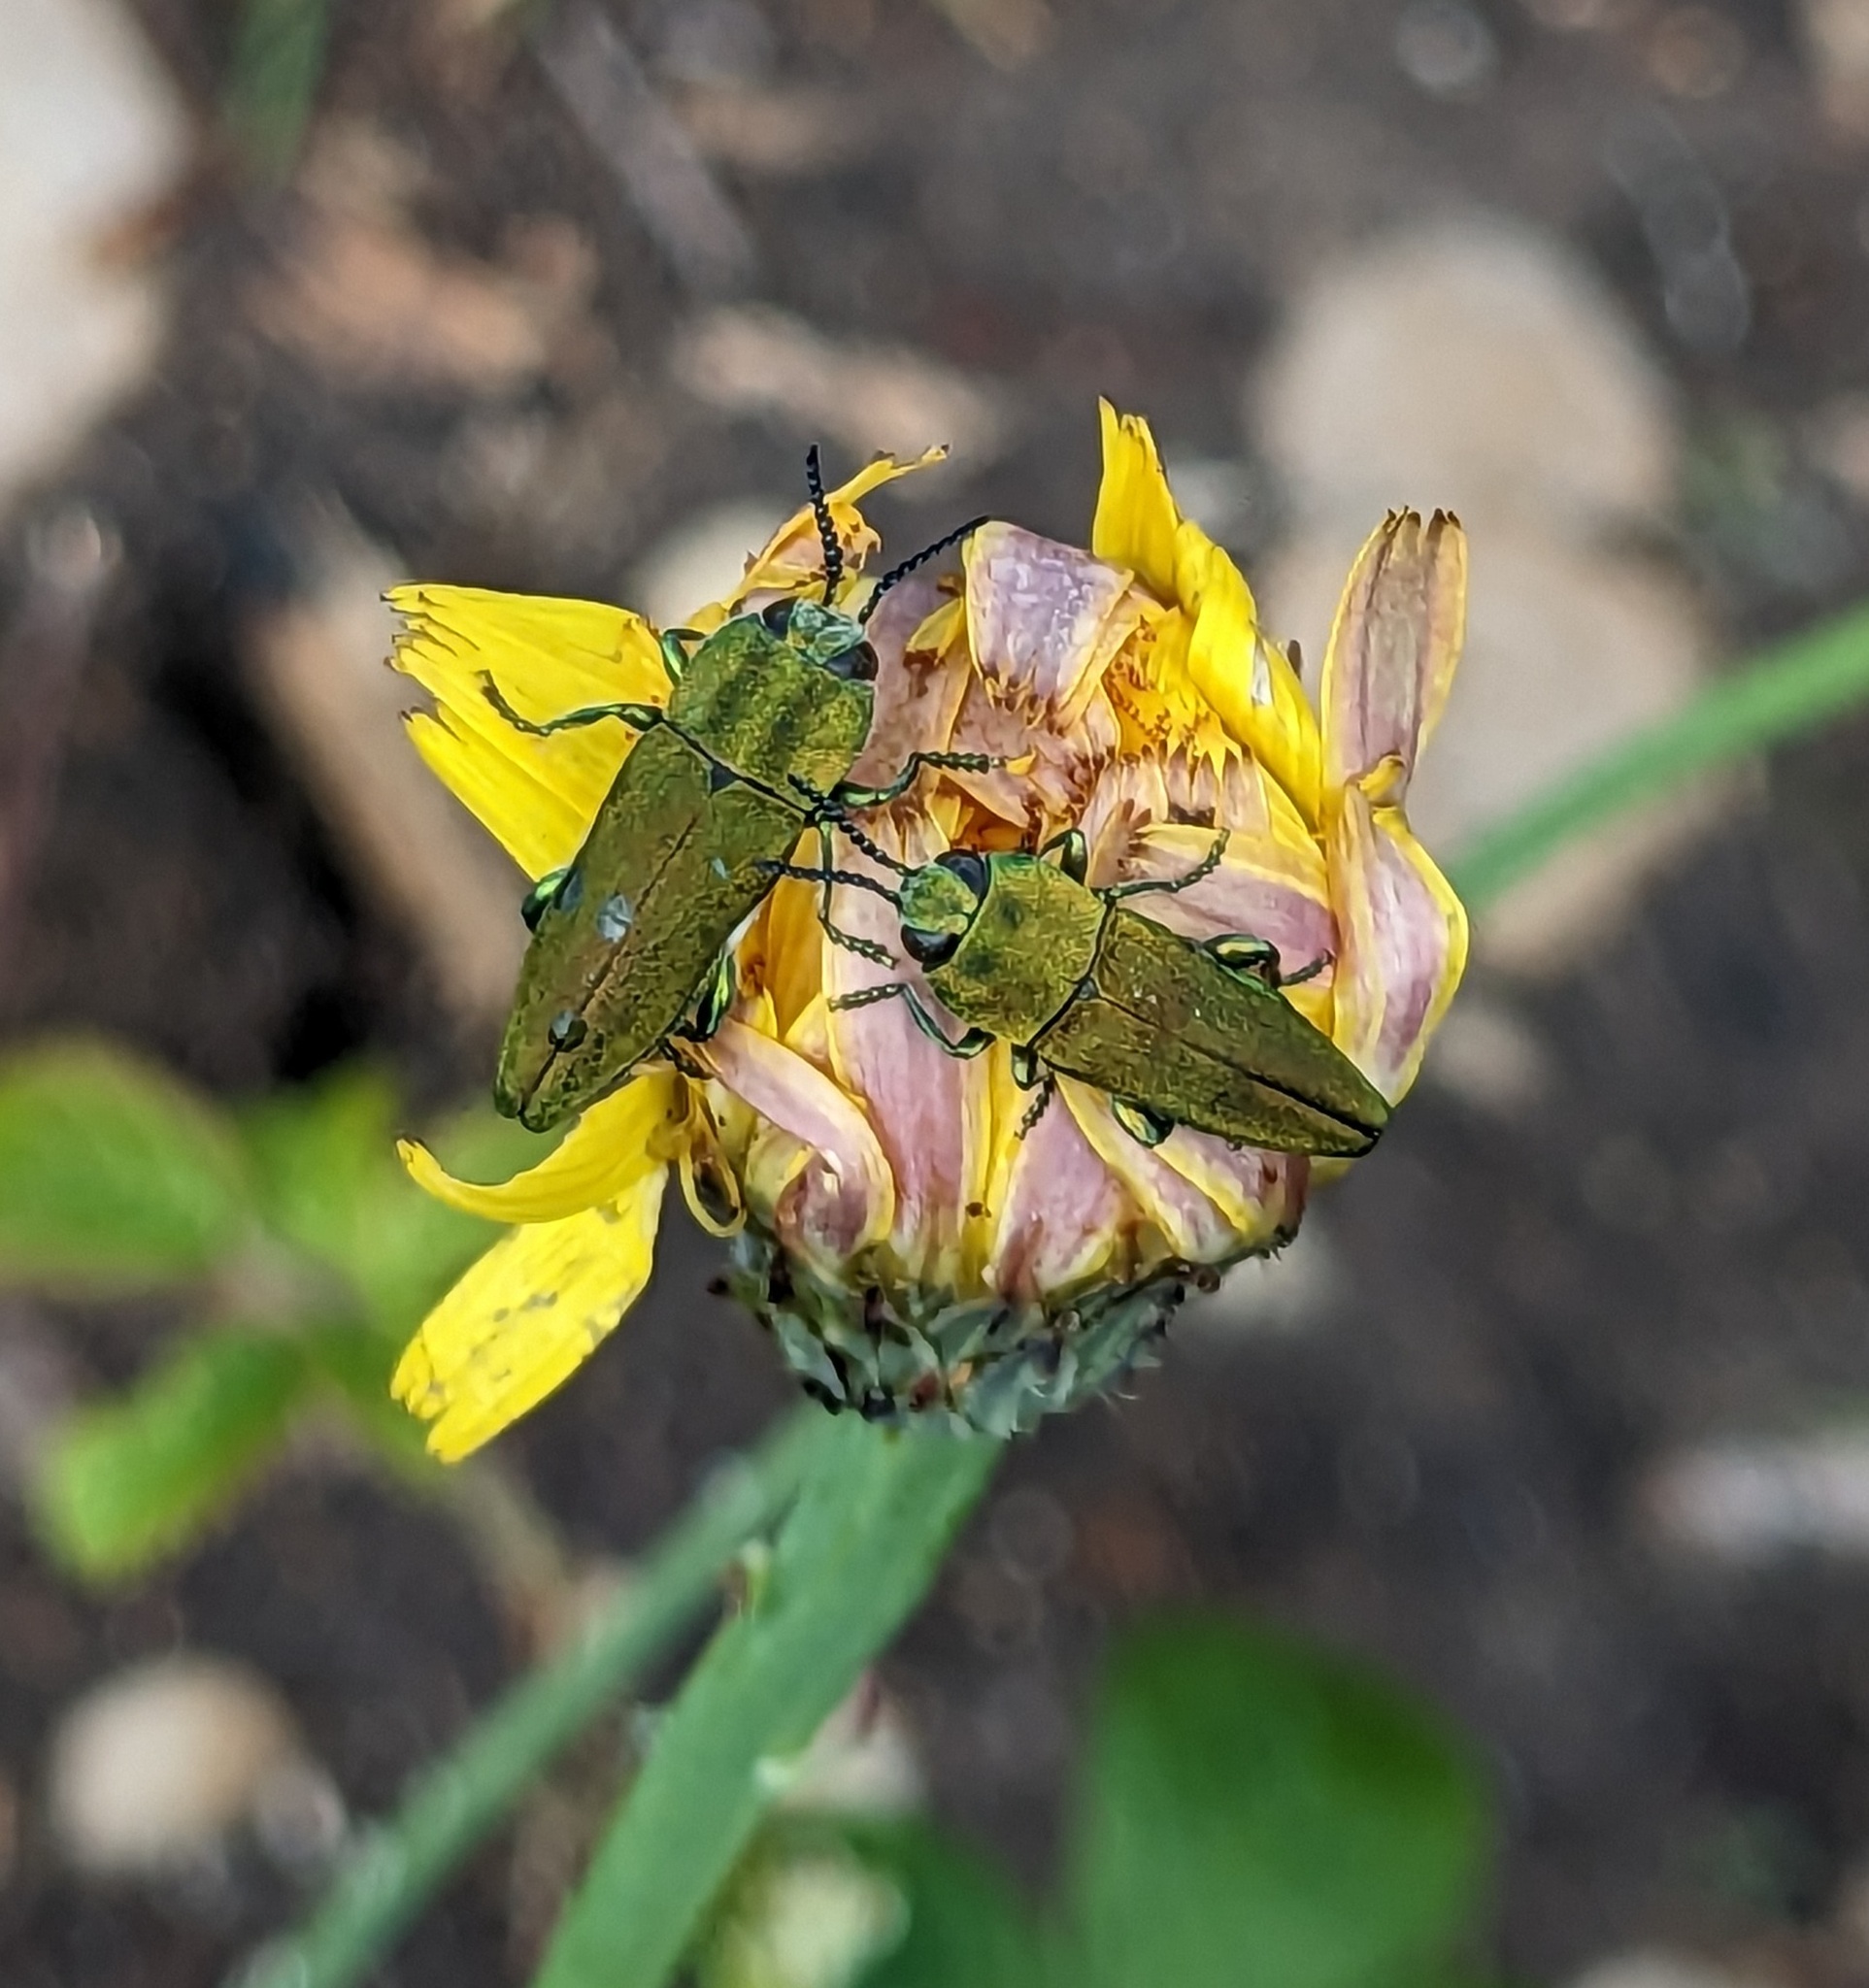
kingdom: Animalia
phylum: Arthropoda
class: Insecta
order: Coleoptera
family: Buprestidae
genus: Anthaxia
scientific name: Anthaxia hungarica
